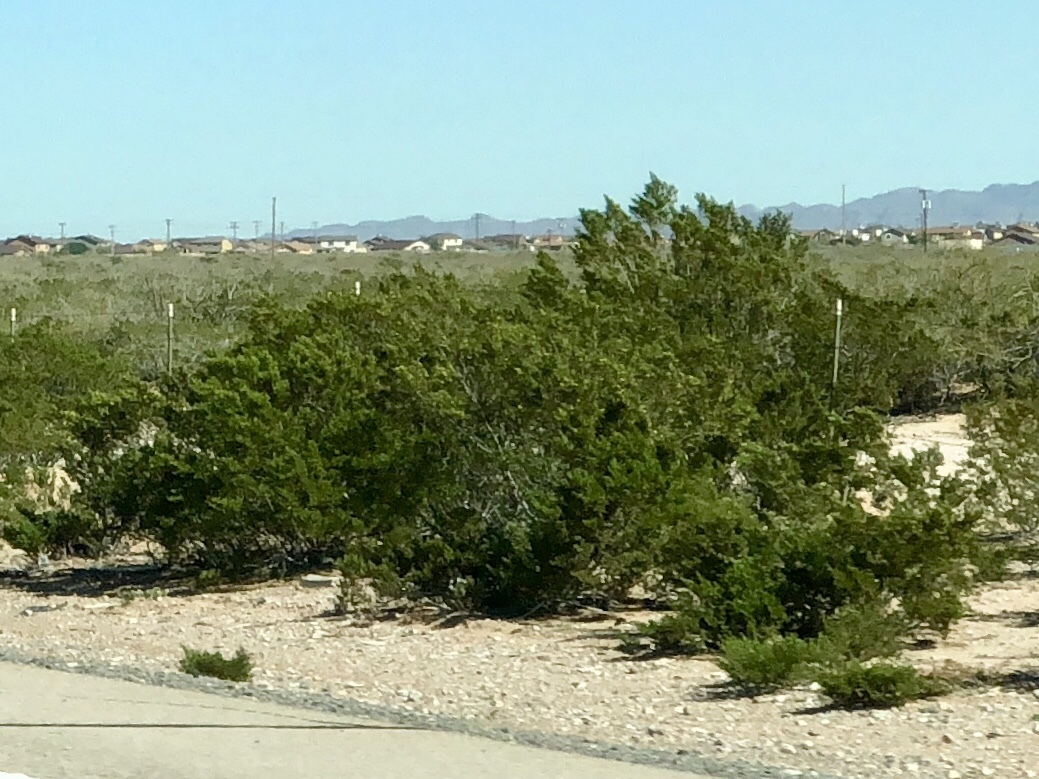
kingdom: Plantae
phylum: Tracheophyta
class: Magnoliopsida
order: Zygophyllales
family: Zygophyllaceae
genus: Larrea
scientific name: Larrea tridentata
